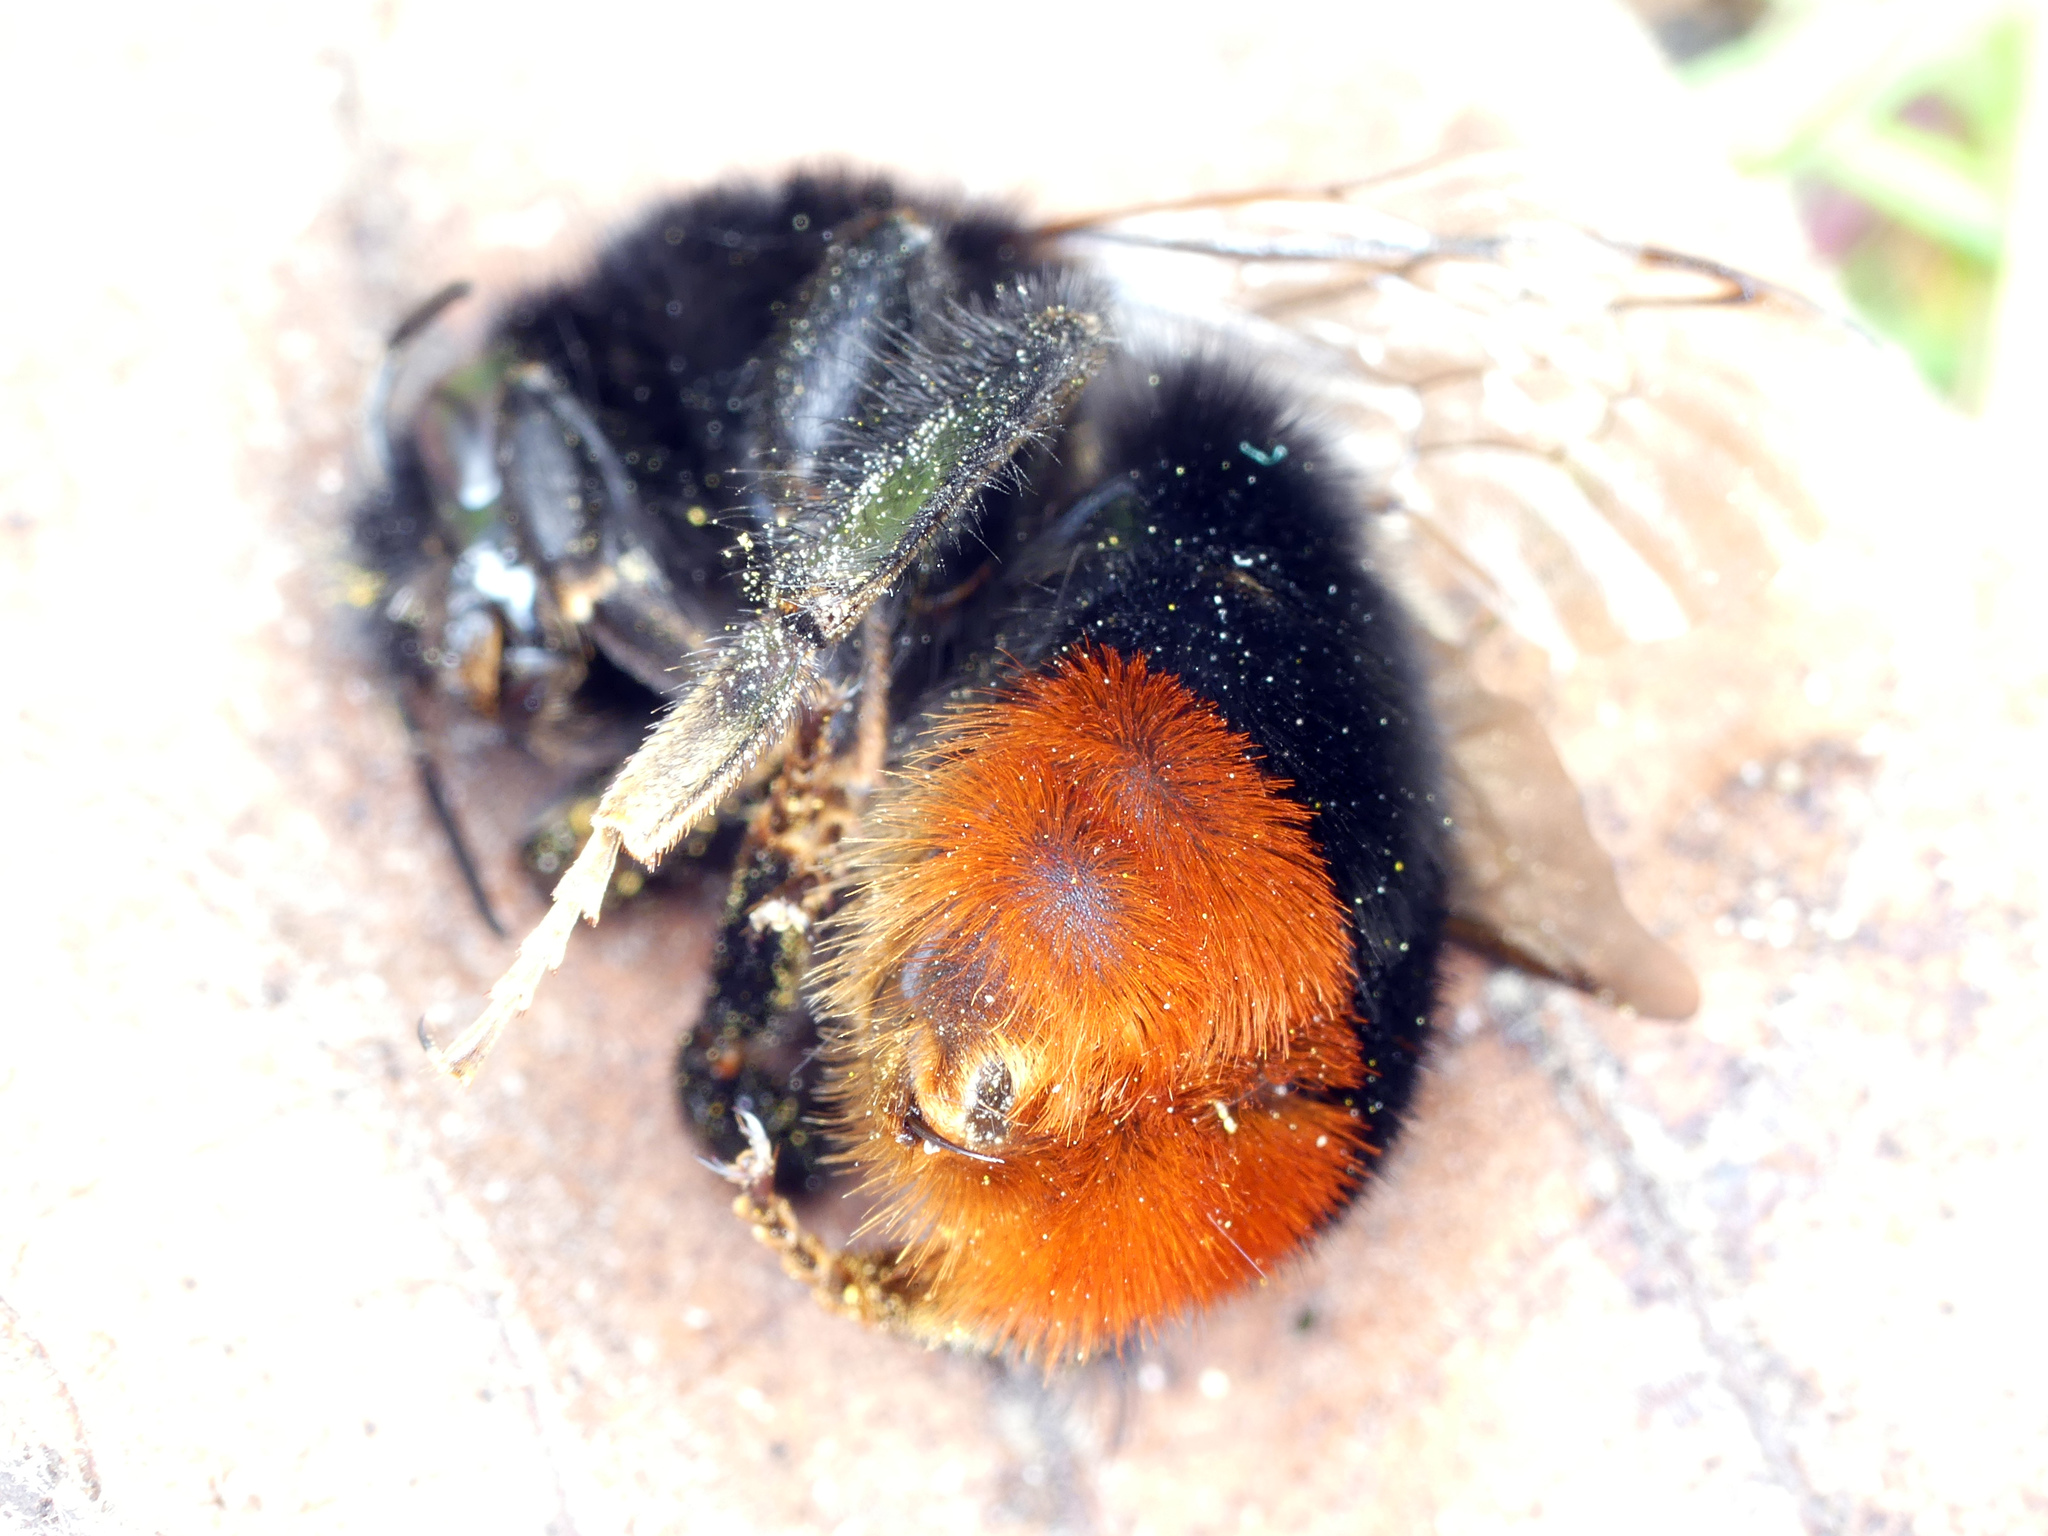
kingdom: Animalia
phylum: Arthropoda
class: Insecta
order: Hymenoptera
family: Apidae
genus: Bombus
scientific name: Bombus lapidarius
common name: Large red-tailed humble-bee
